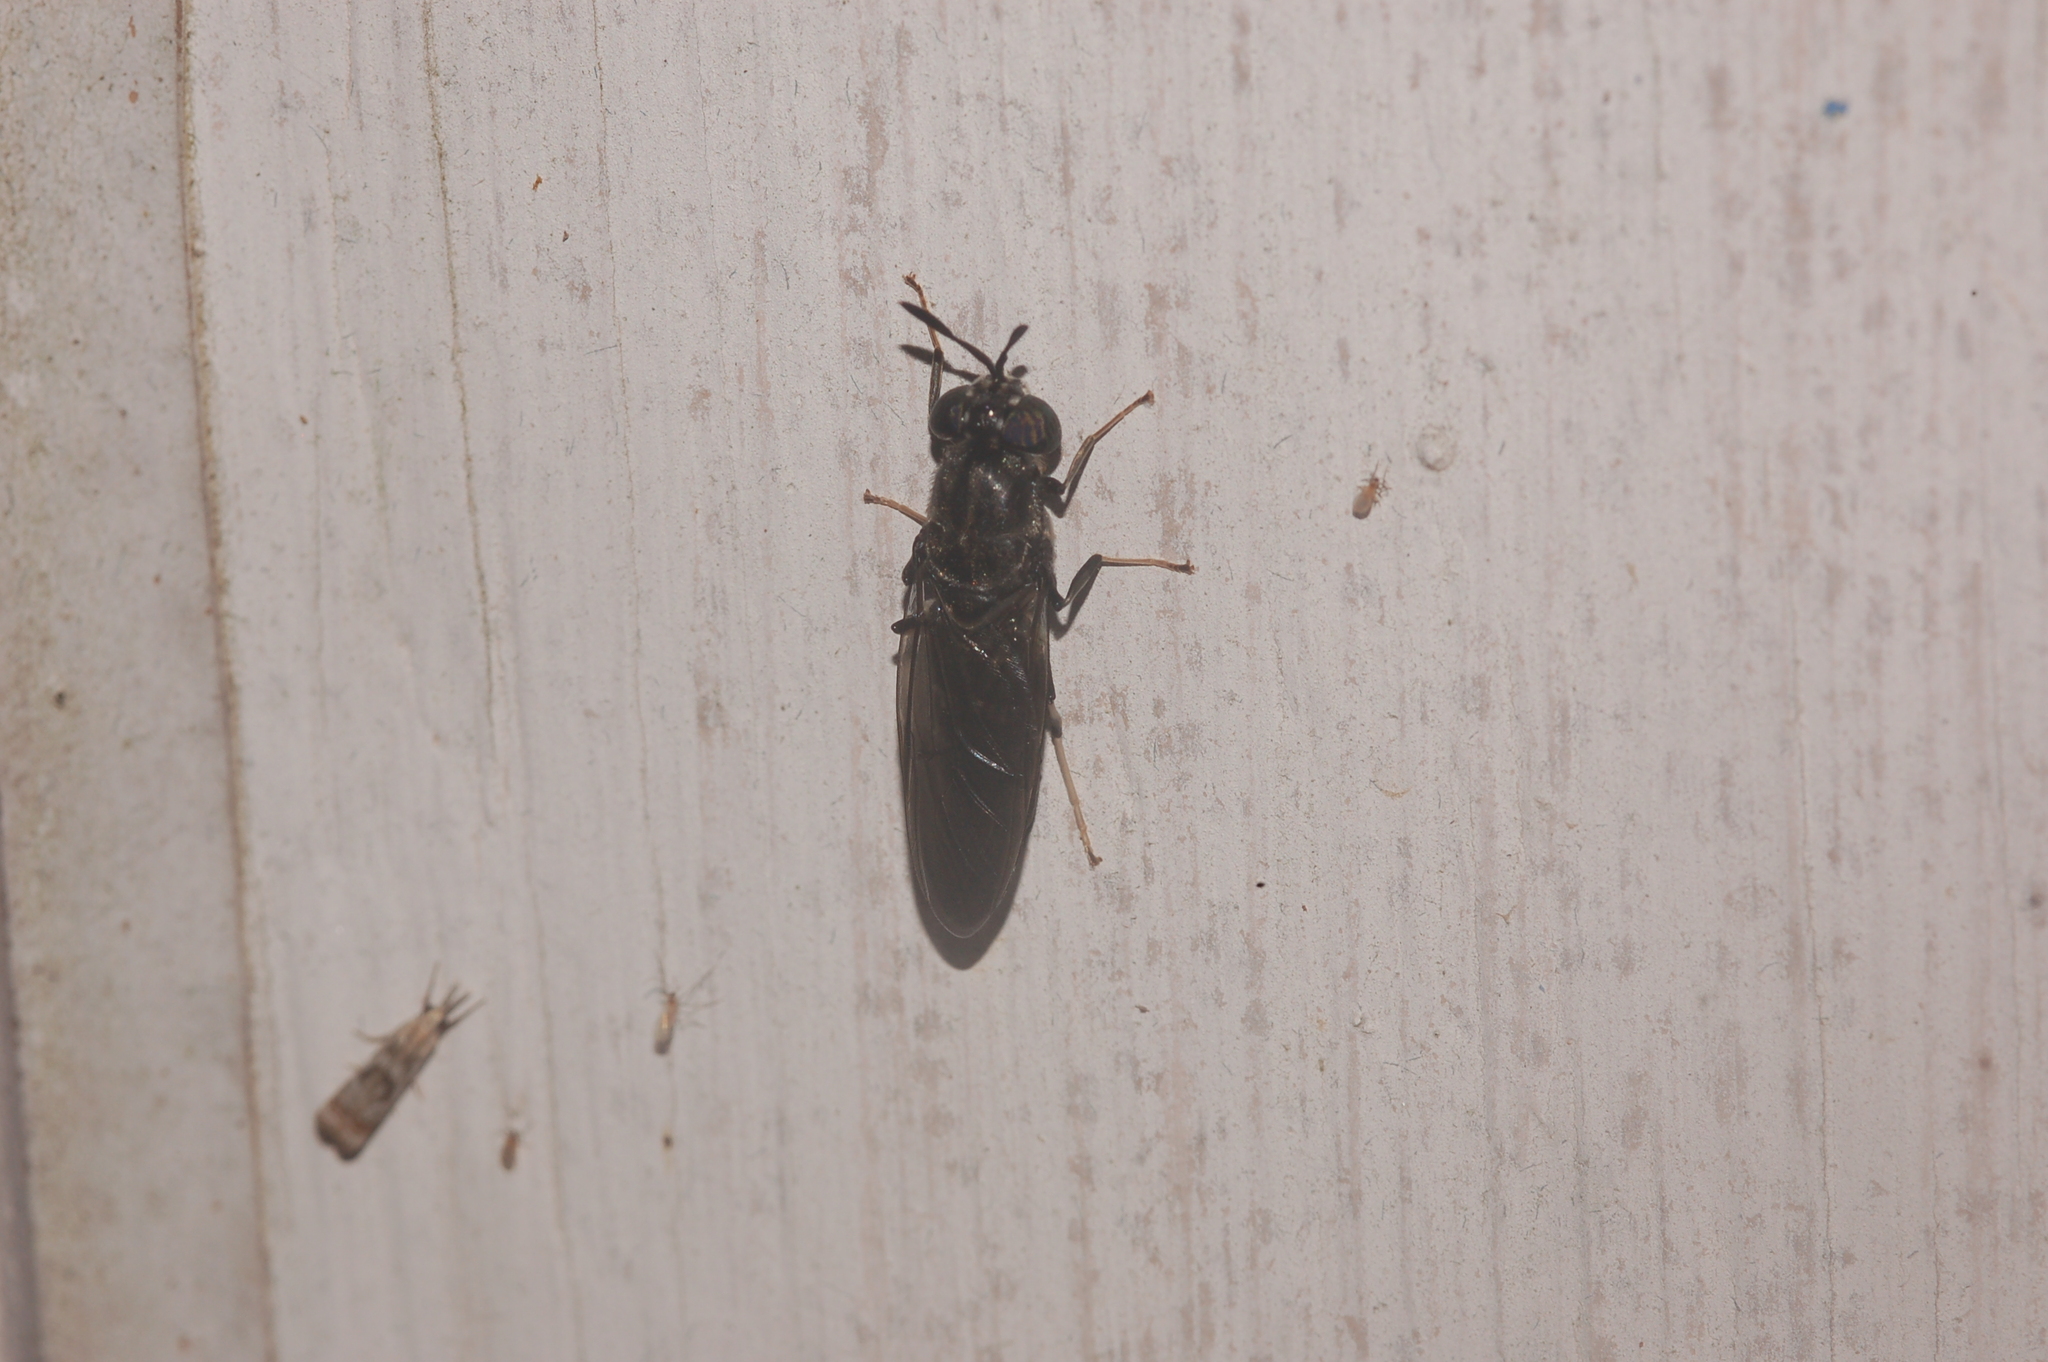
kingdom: Animalia
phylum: Arthropoda
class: Insecta
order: Diptera
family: Stratiomyidae
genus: Hermetia
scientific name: Hermetia illucens
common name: Black soldier fly
